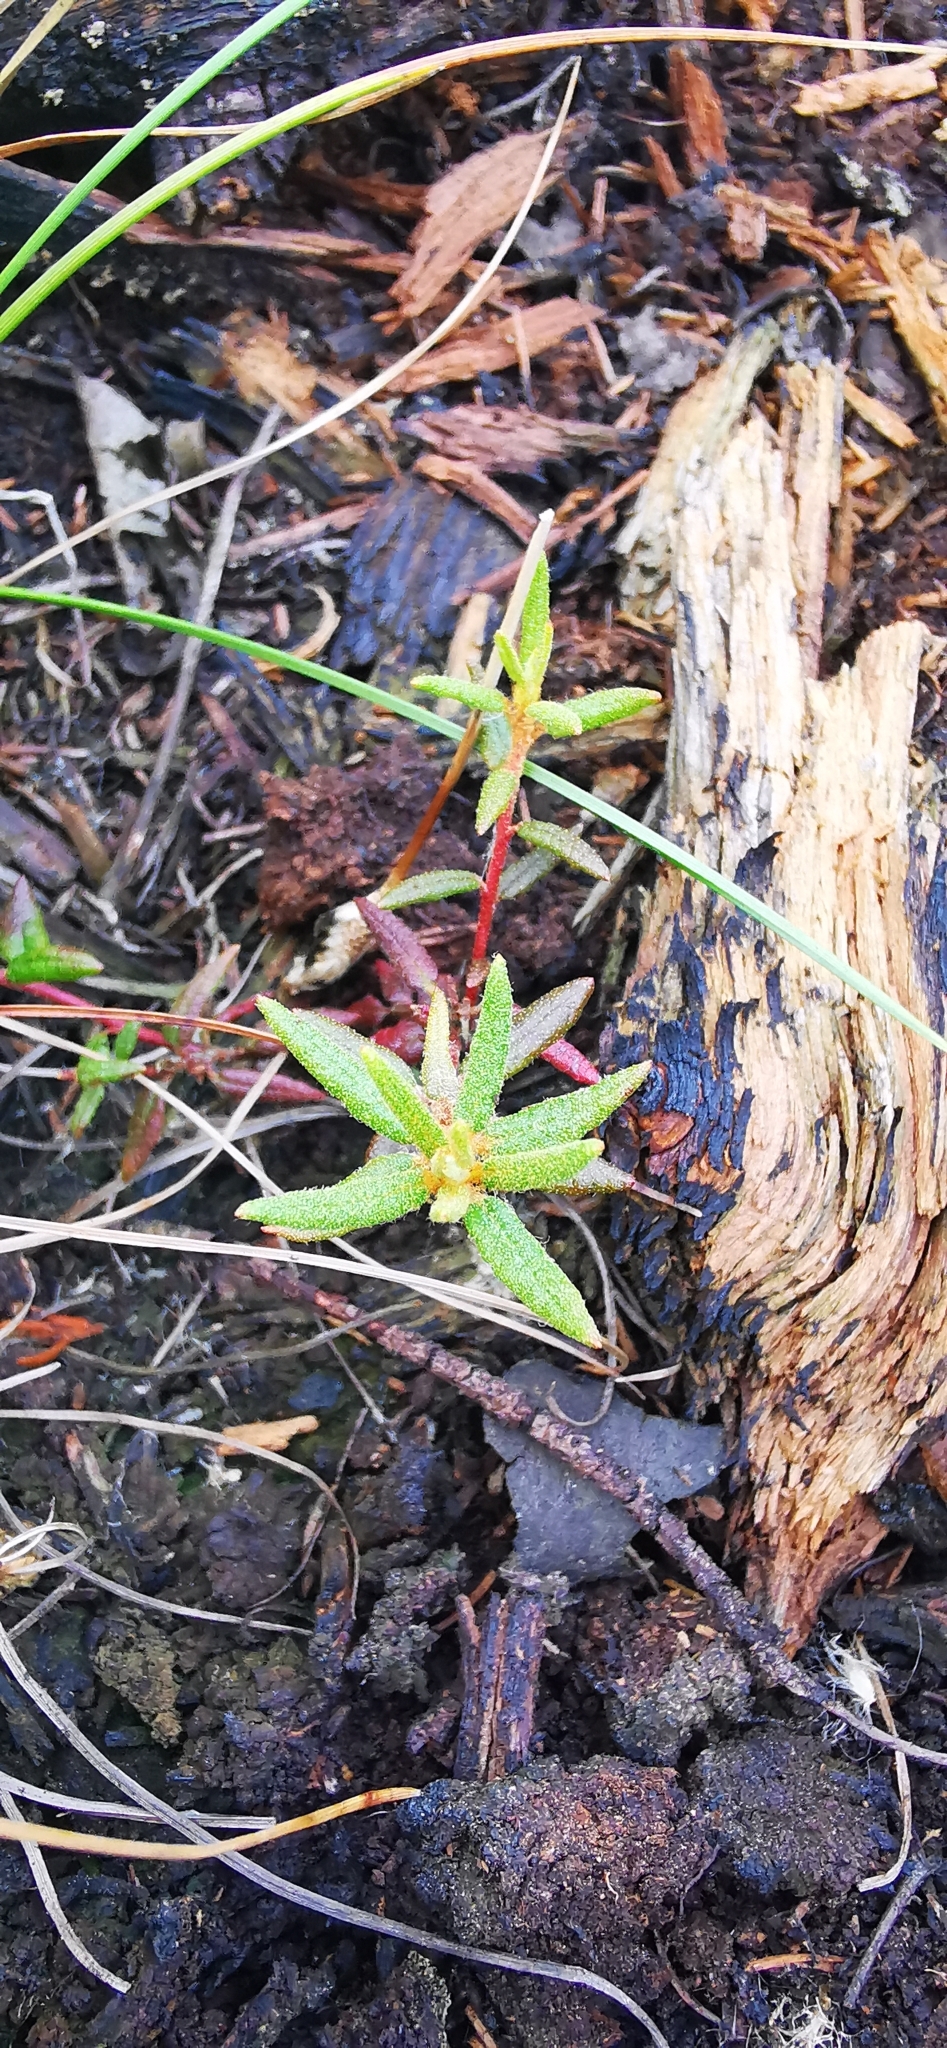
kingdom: Plantae
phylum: Tracheophyta
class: Magnoliopsida
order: Ericales
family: Ericaceae
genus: Rhododendron
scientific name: Rhododendron tomentosum
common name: Marsh labrador tea
